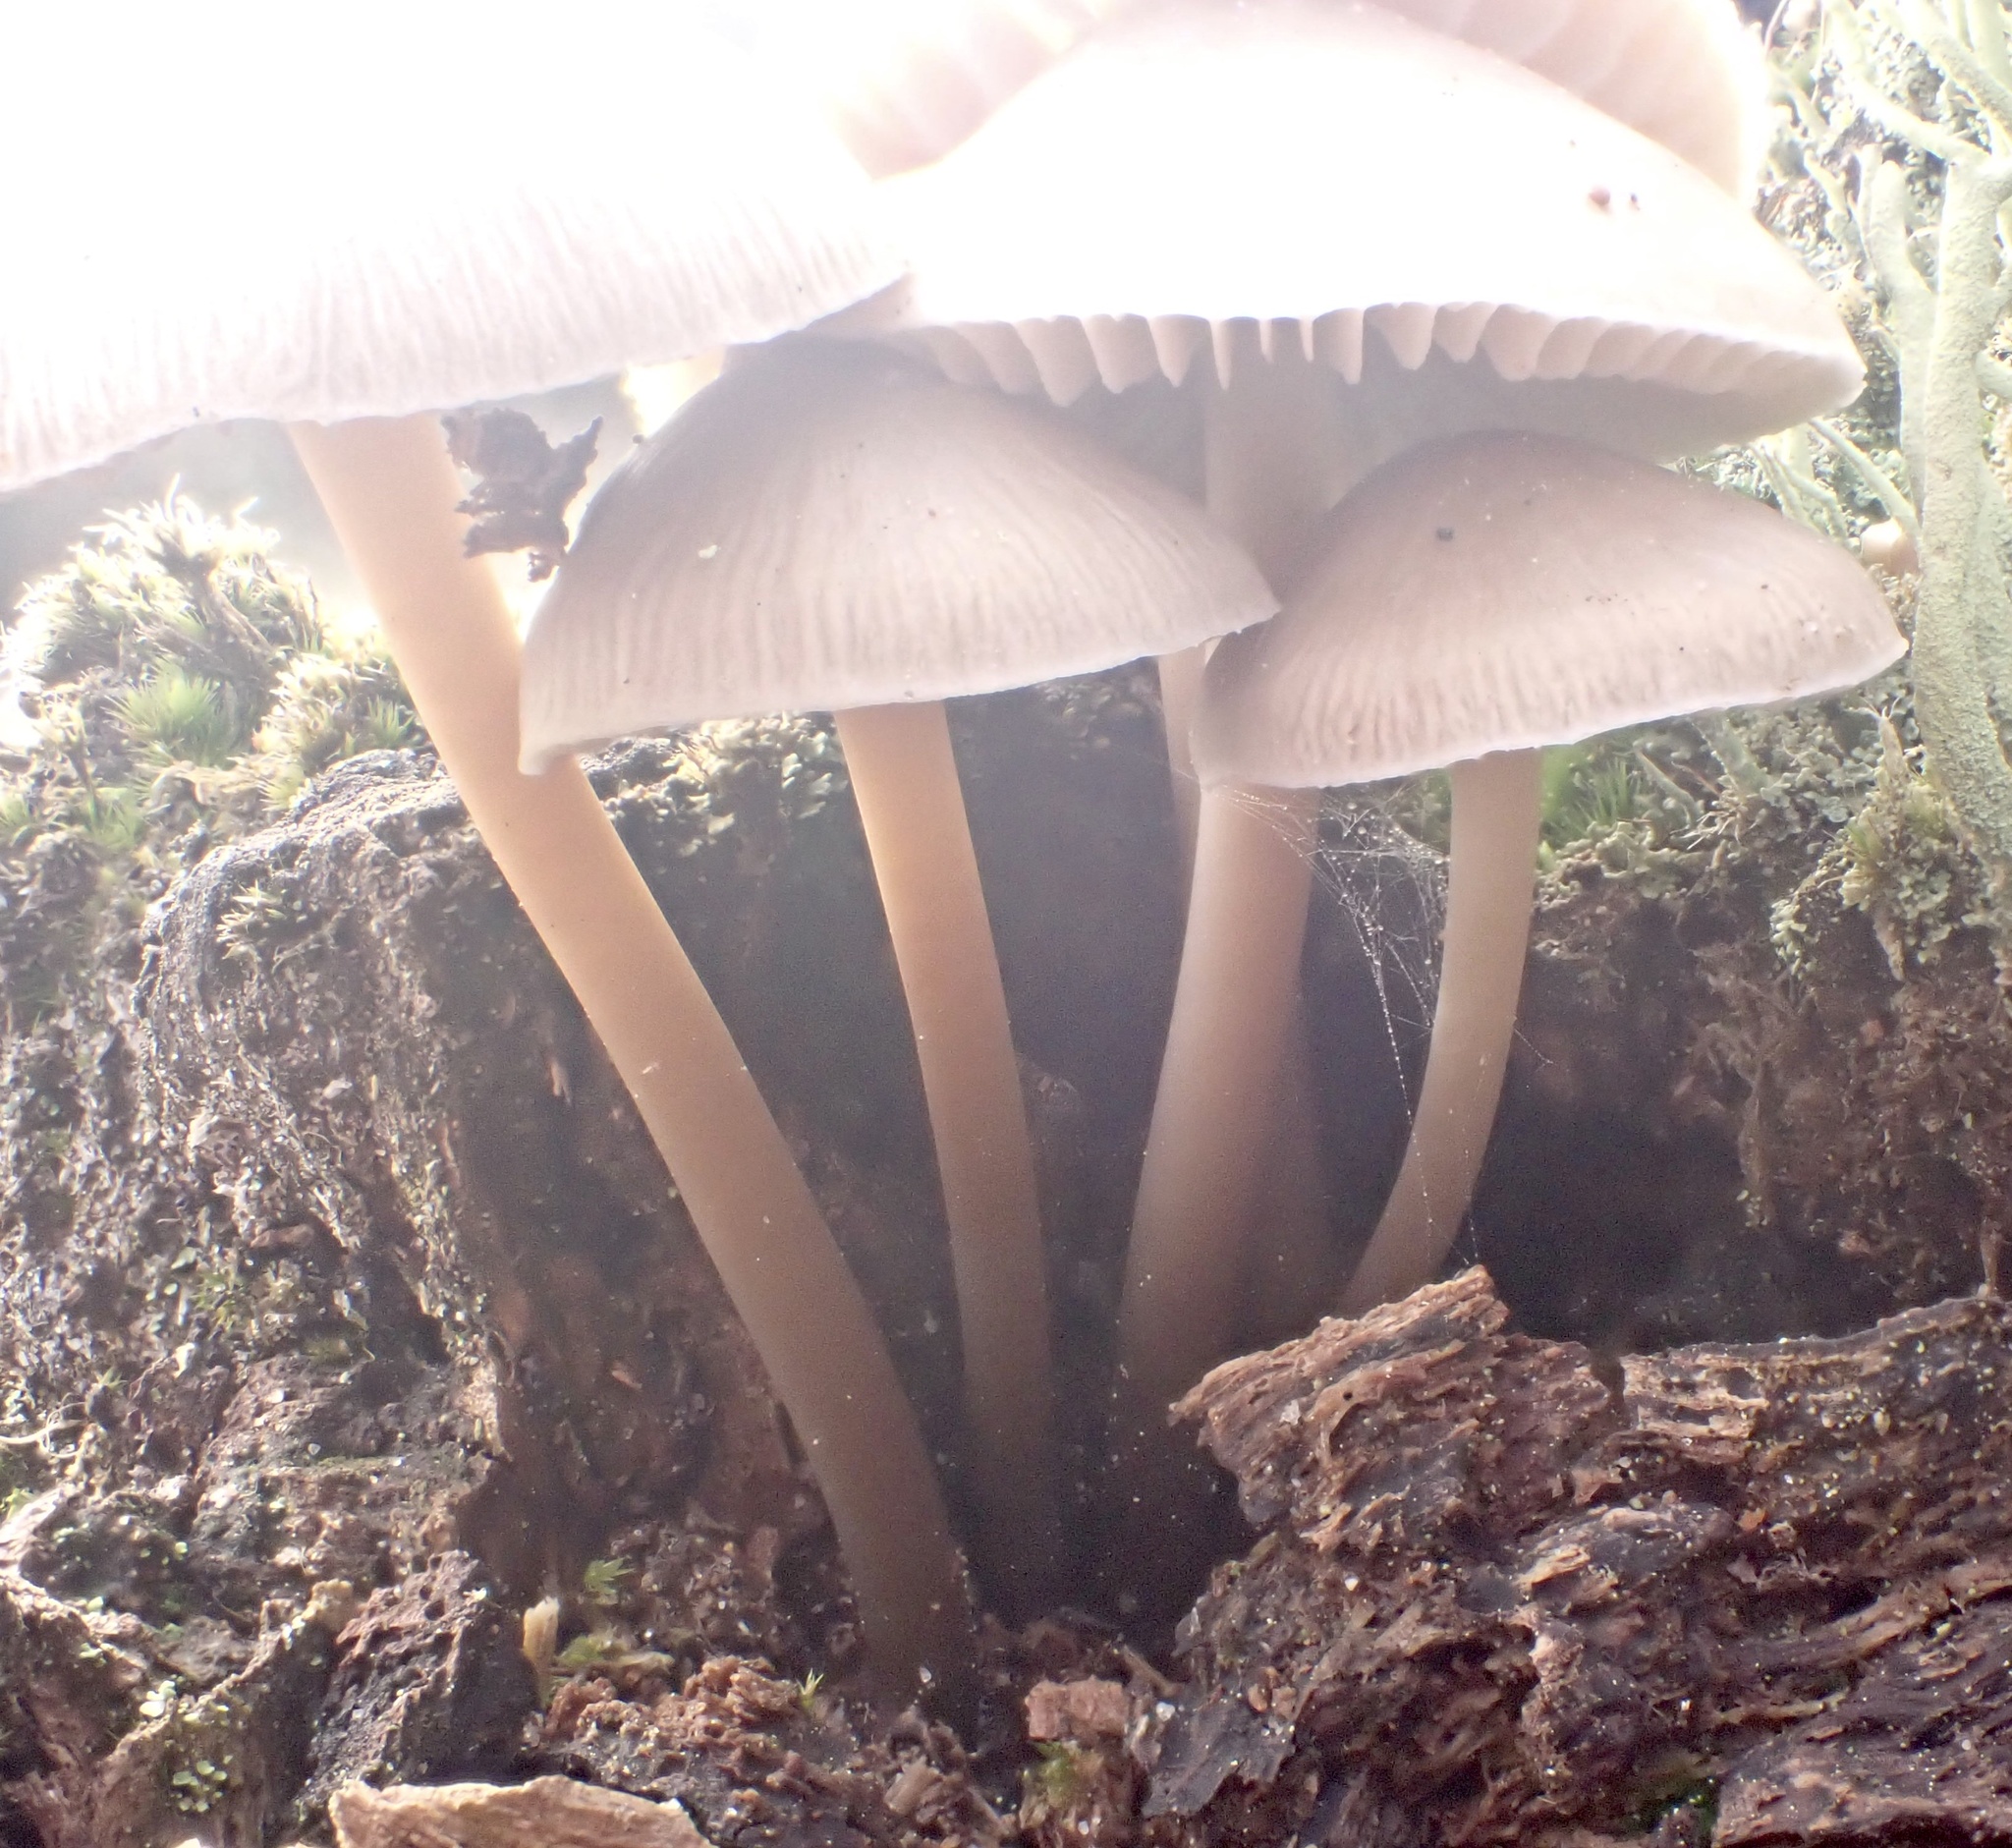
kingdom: Fungi
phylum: Basidiomycota
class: Agaricomycetes
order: Agaricales
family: Mycenaceae
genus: Mycena
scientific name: Mycena galericulata
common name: Bonnet mycena
